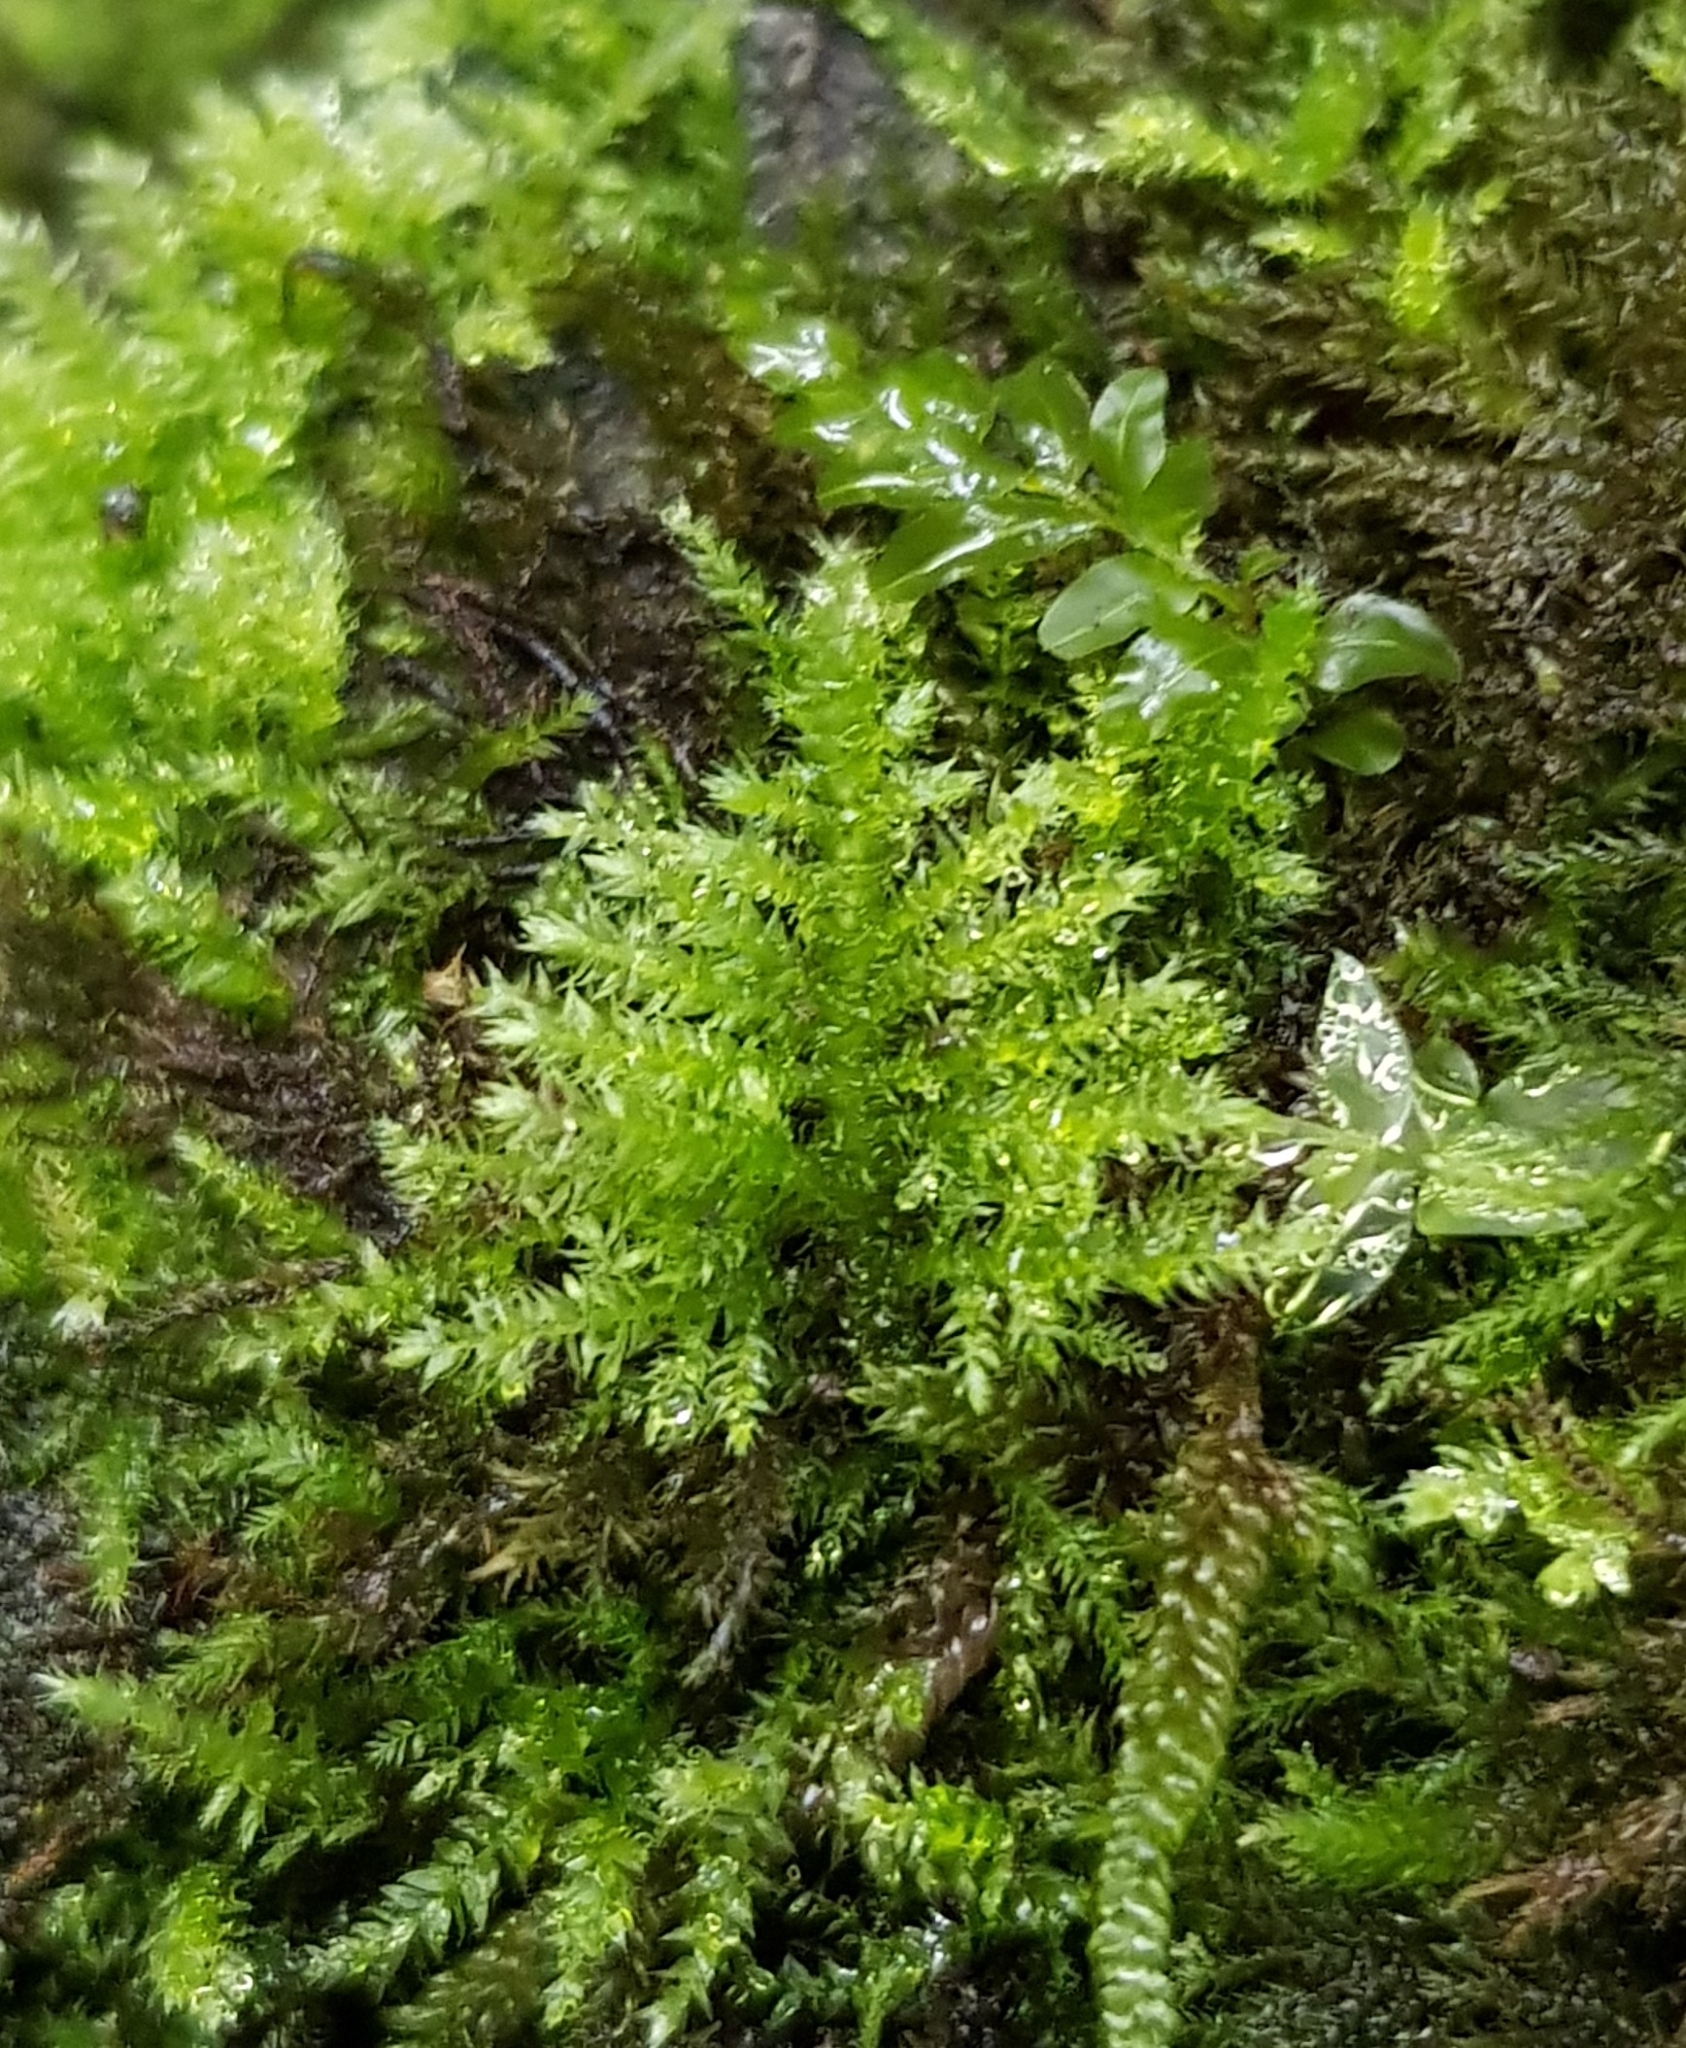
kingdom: Plantae
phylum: Bryophyta
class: Bryopsida
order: Hypnales
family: Brachytheciaceae
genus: Kindbergia
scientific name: Kindbergia praelonga
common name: Slender beaked moss
